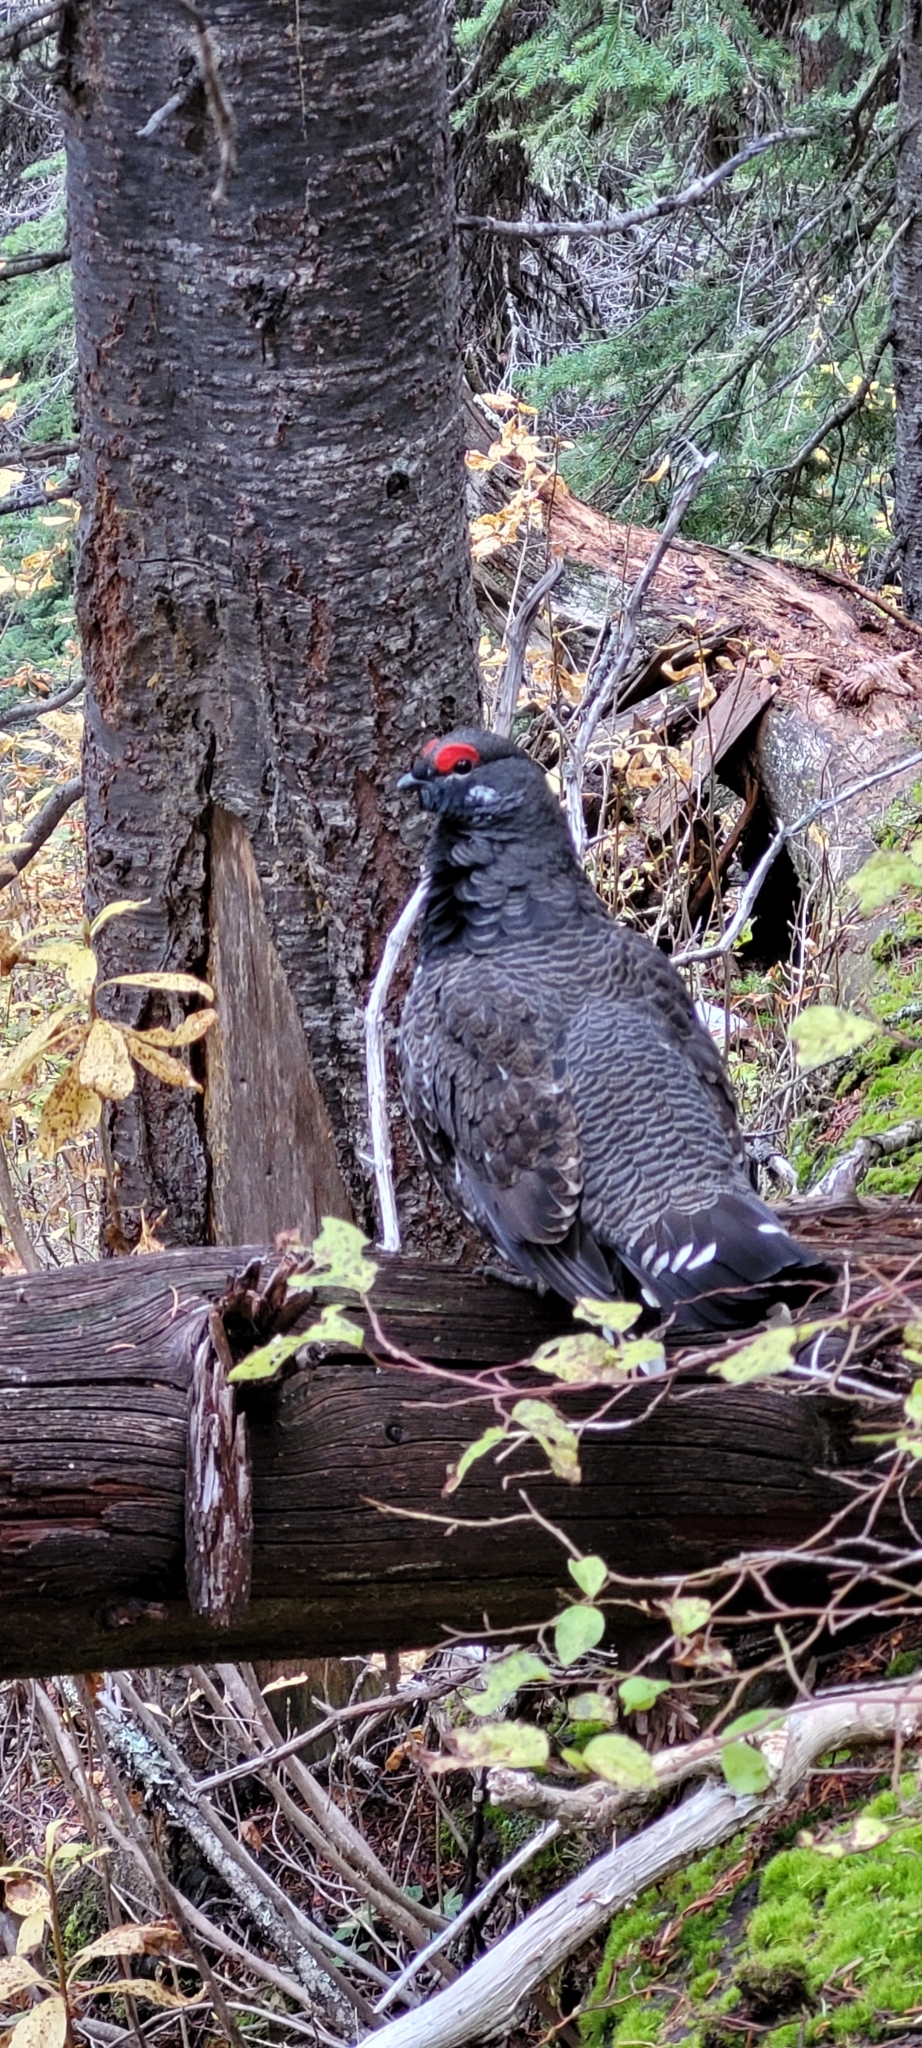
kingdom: Animalia
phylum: Chordata
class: Aves
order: Galliformes
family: Phasianidae
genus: Canachites
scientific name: Canachites canadensis
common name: Spruce grouse
